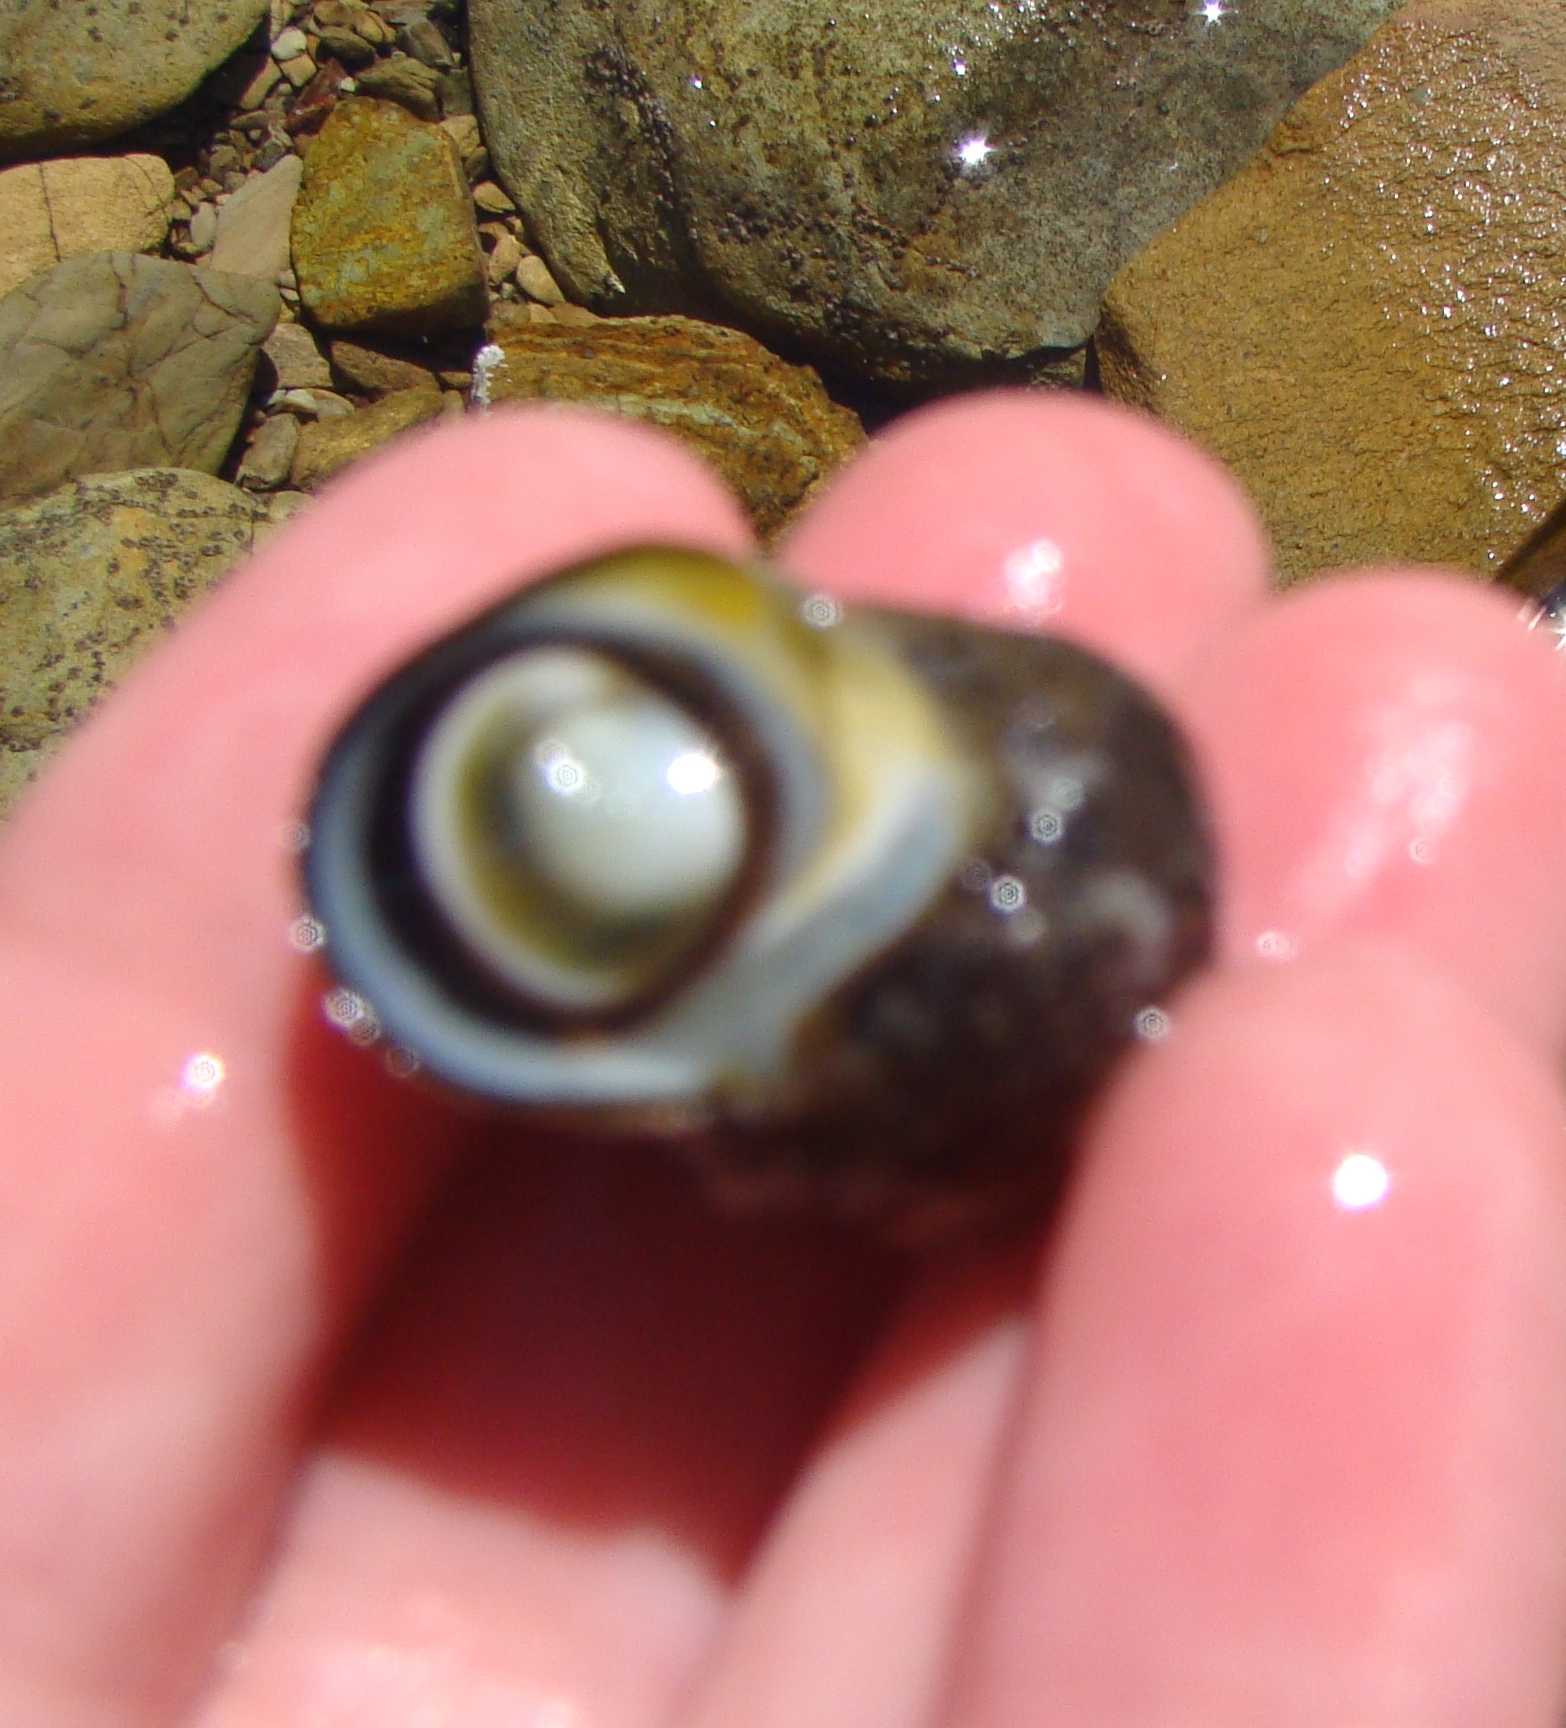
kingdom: Animalia
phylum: Mollusca
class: Gastropoda
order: Trochida
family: Turbinidae
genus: Lunella
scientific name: Lunella smaragda
